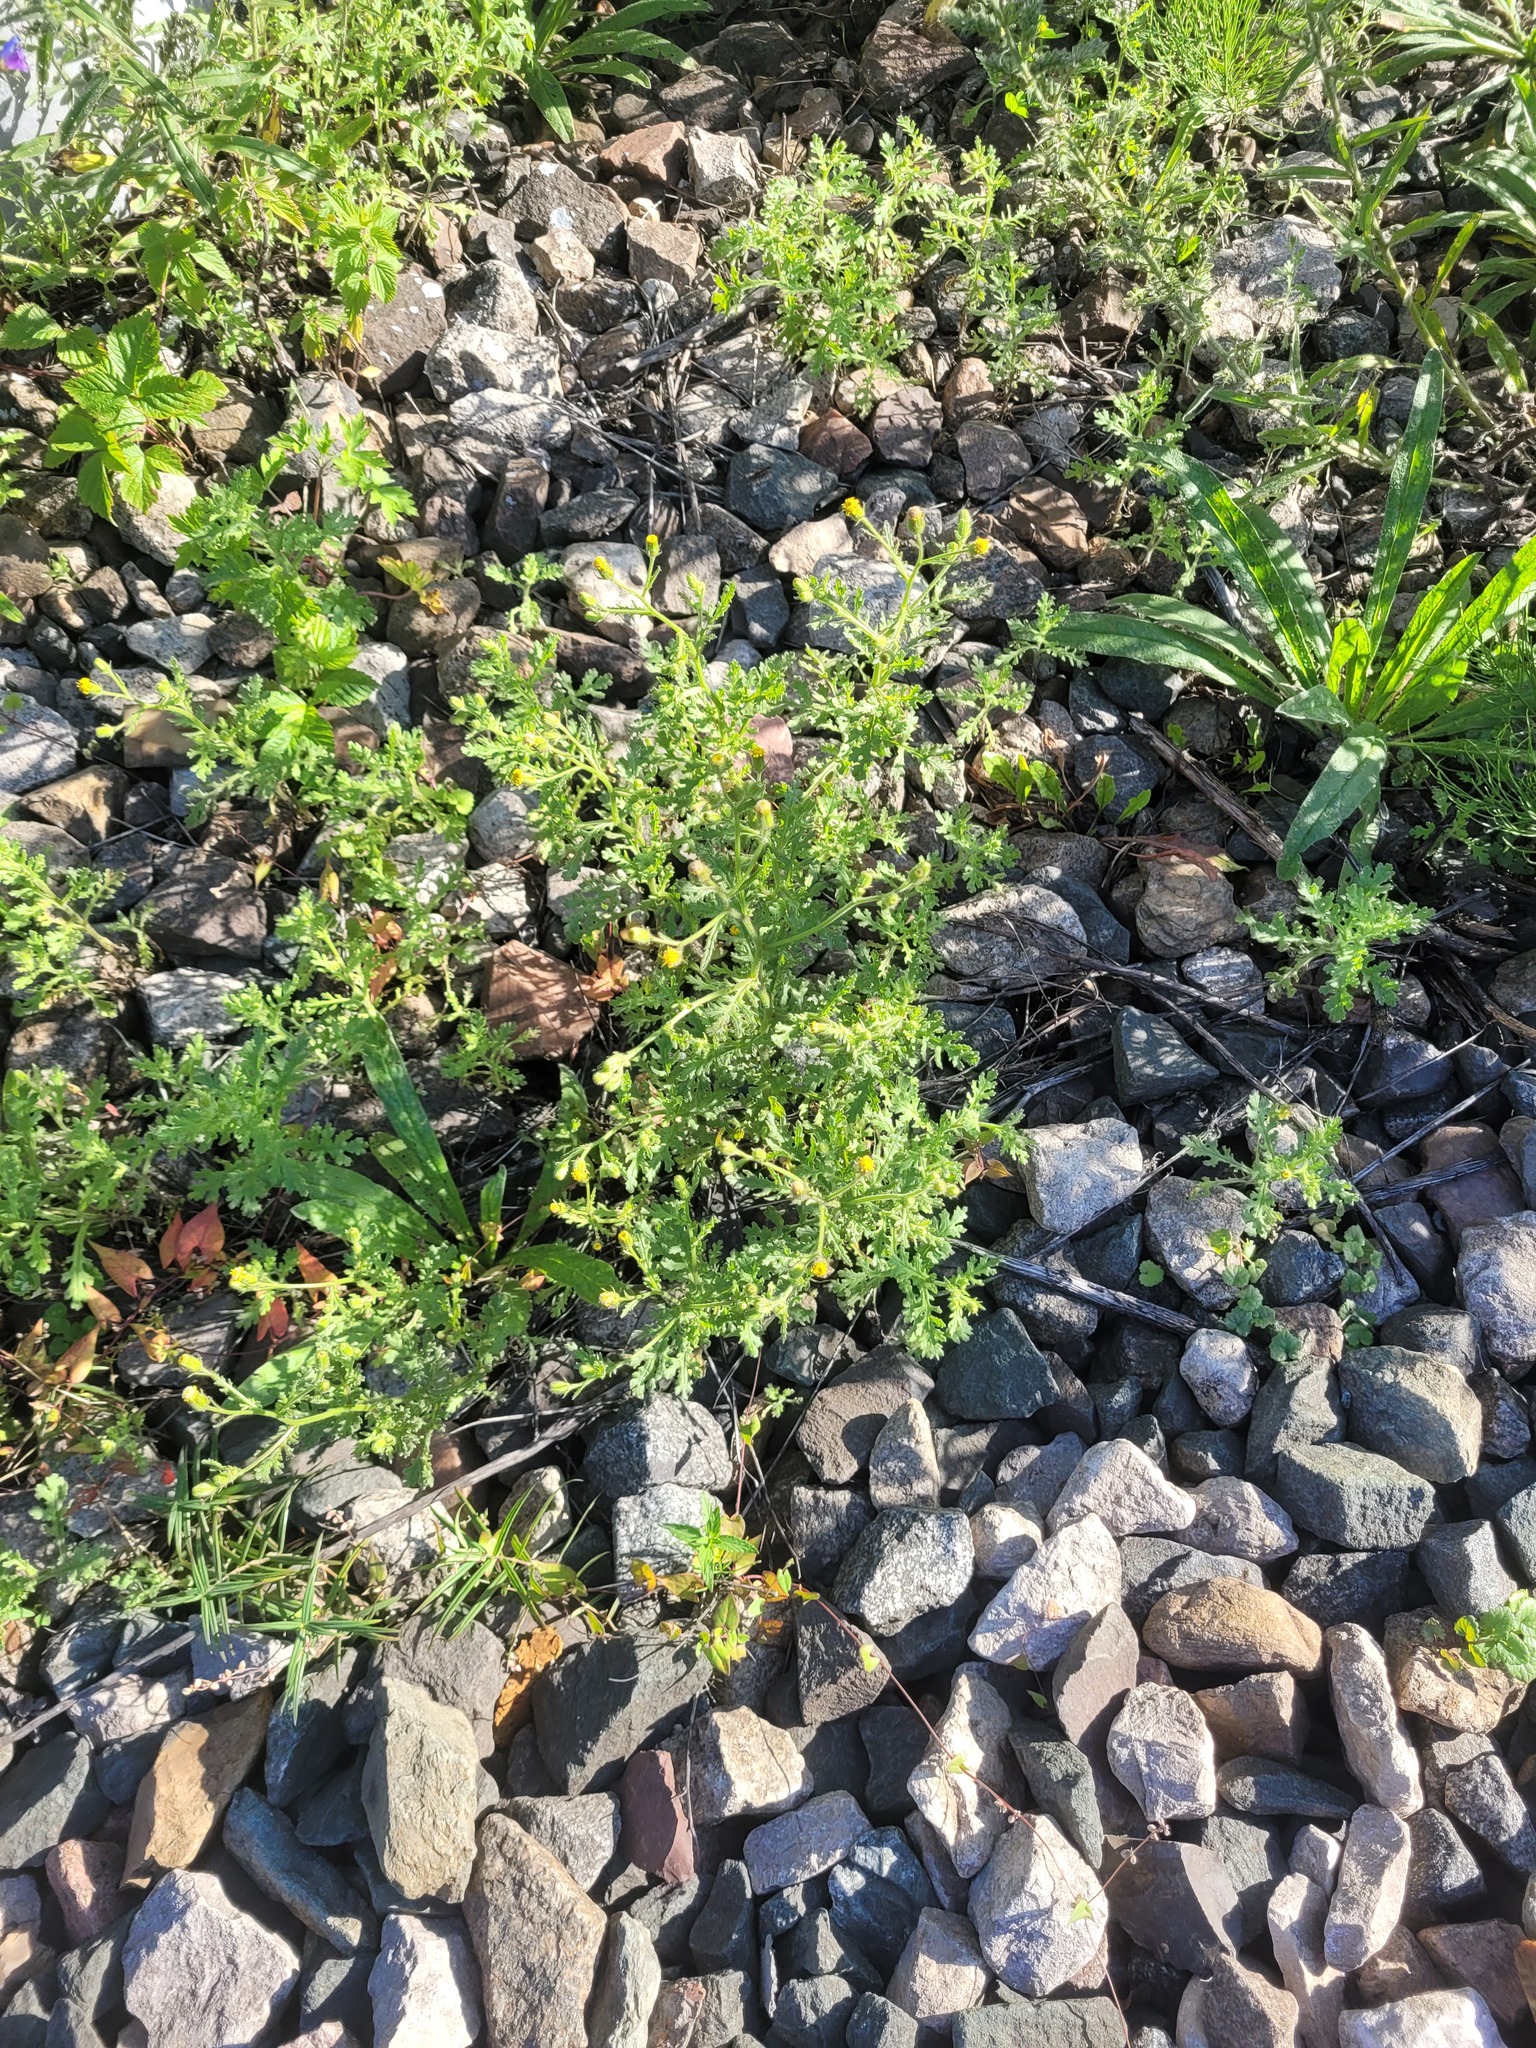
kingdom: Plantae
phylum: Tracheophyta
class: Magnoliopsida
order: Asterales
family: Asteraceae
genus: Senecio
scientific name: Senecio viscosus
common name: Sticky groundsel
